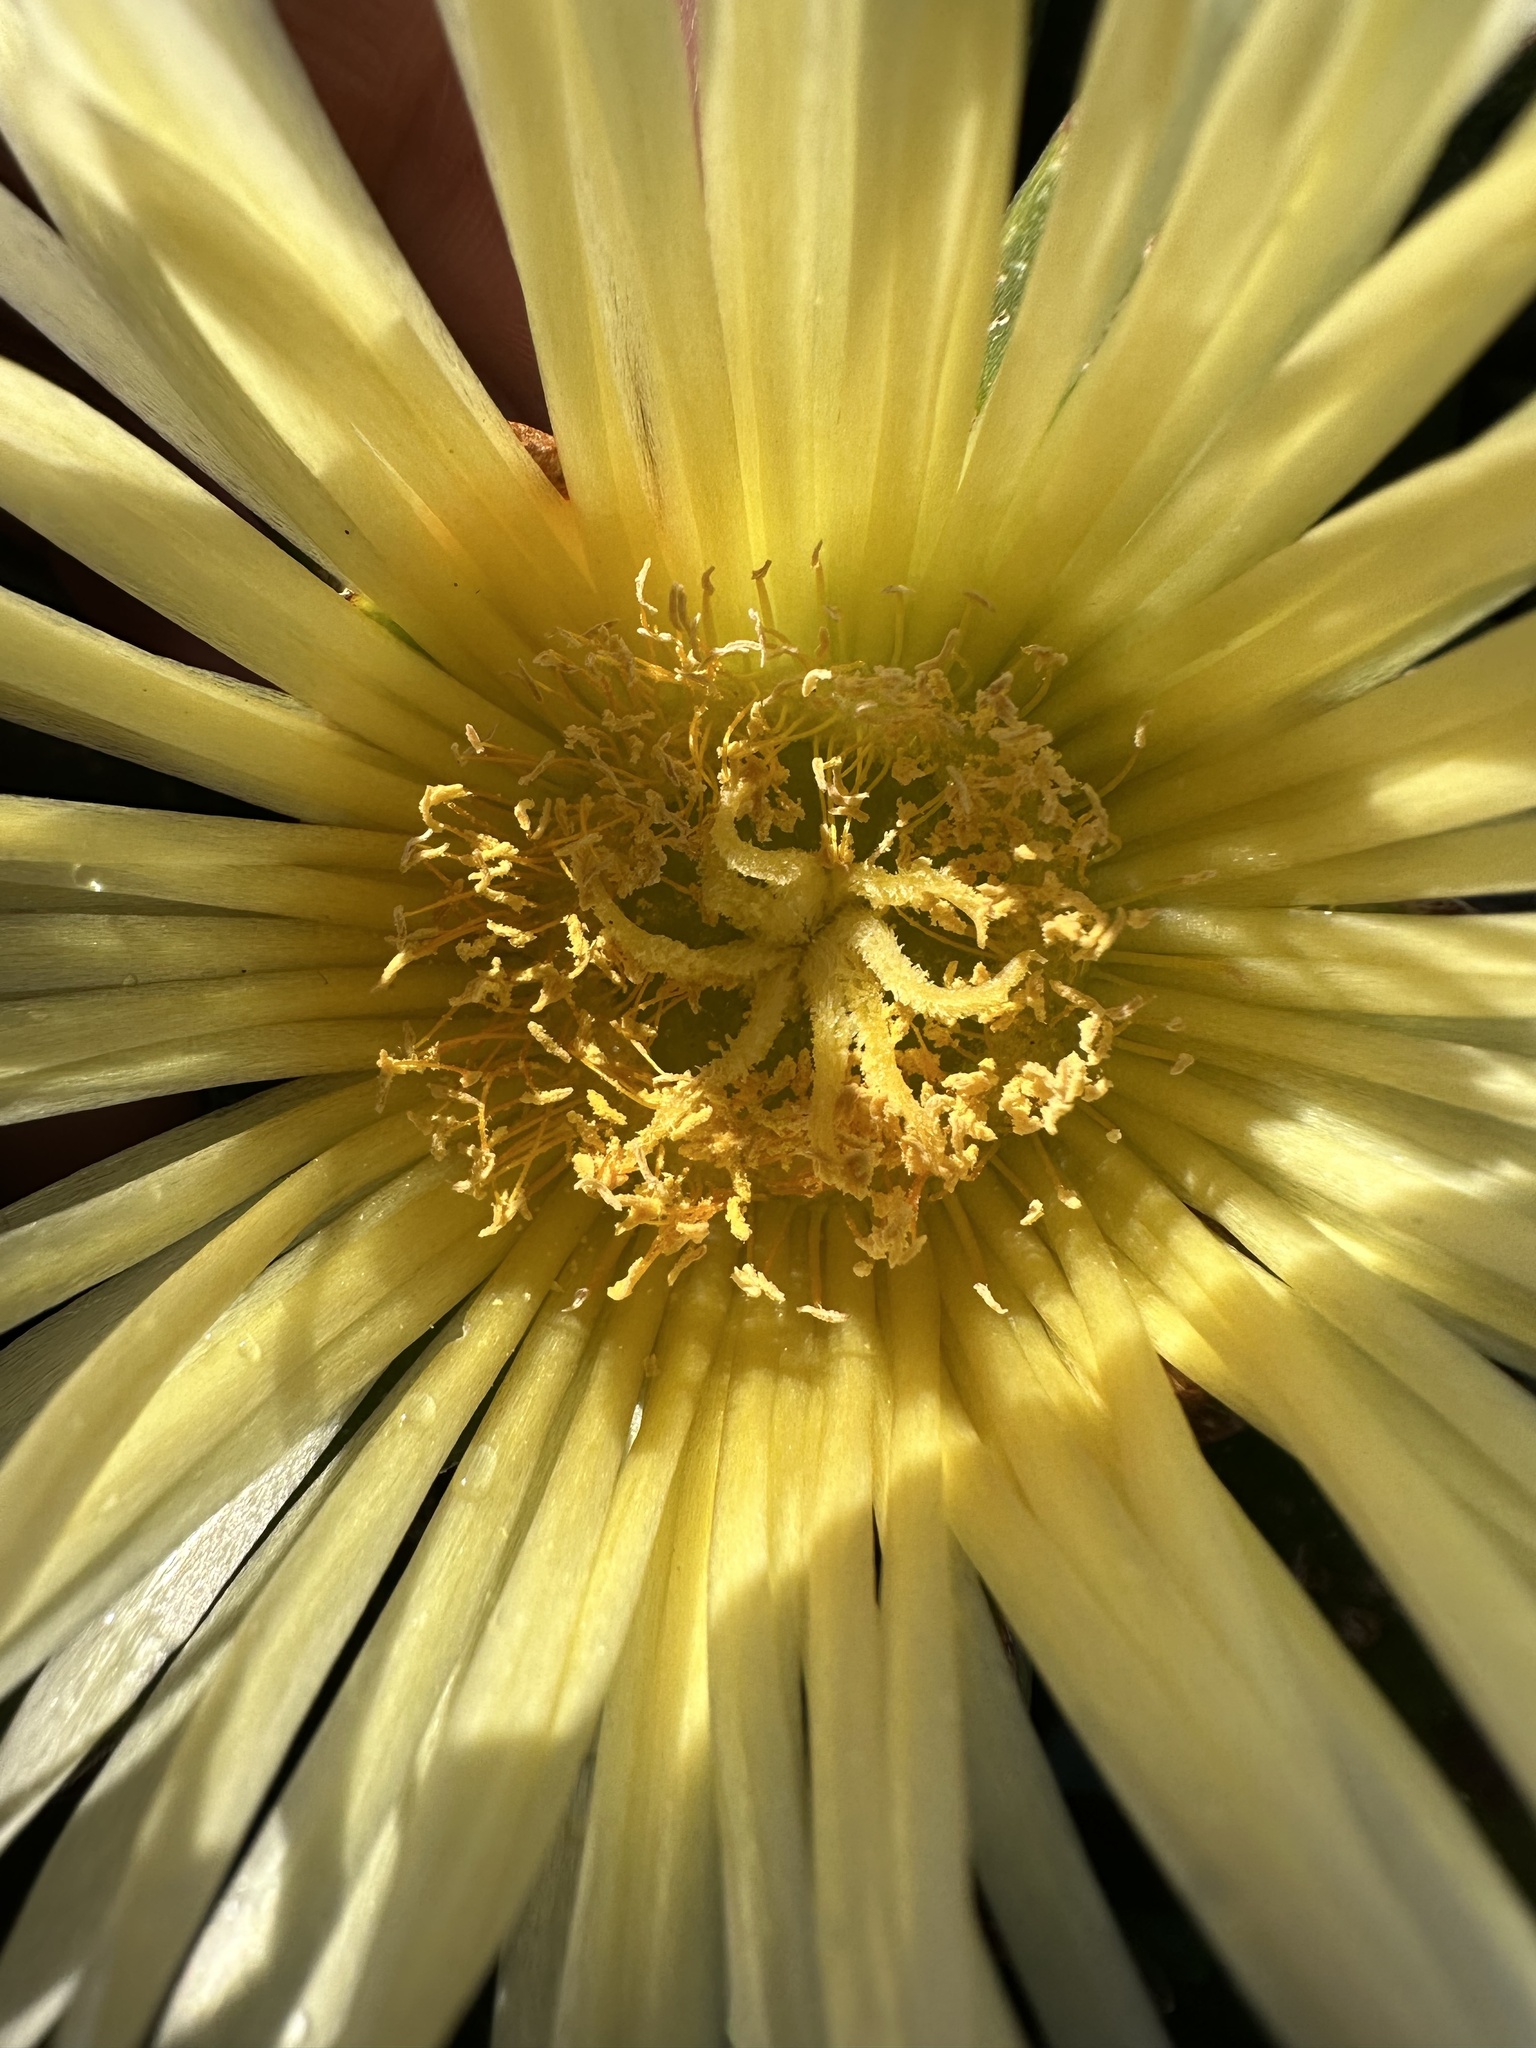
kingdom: Plantae
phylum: Tracheophyta
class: Magnoliopsida
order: Caryophyllales
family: Aizoaceae
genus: Carpobrotus
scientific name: Carpobrotus edulis
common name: Hottentot-fig
